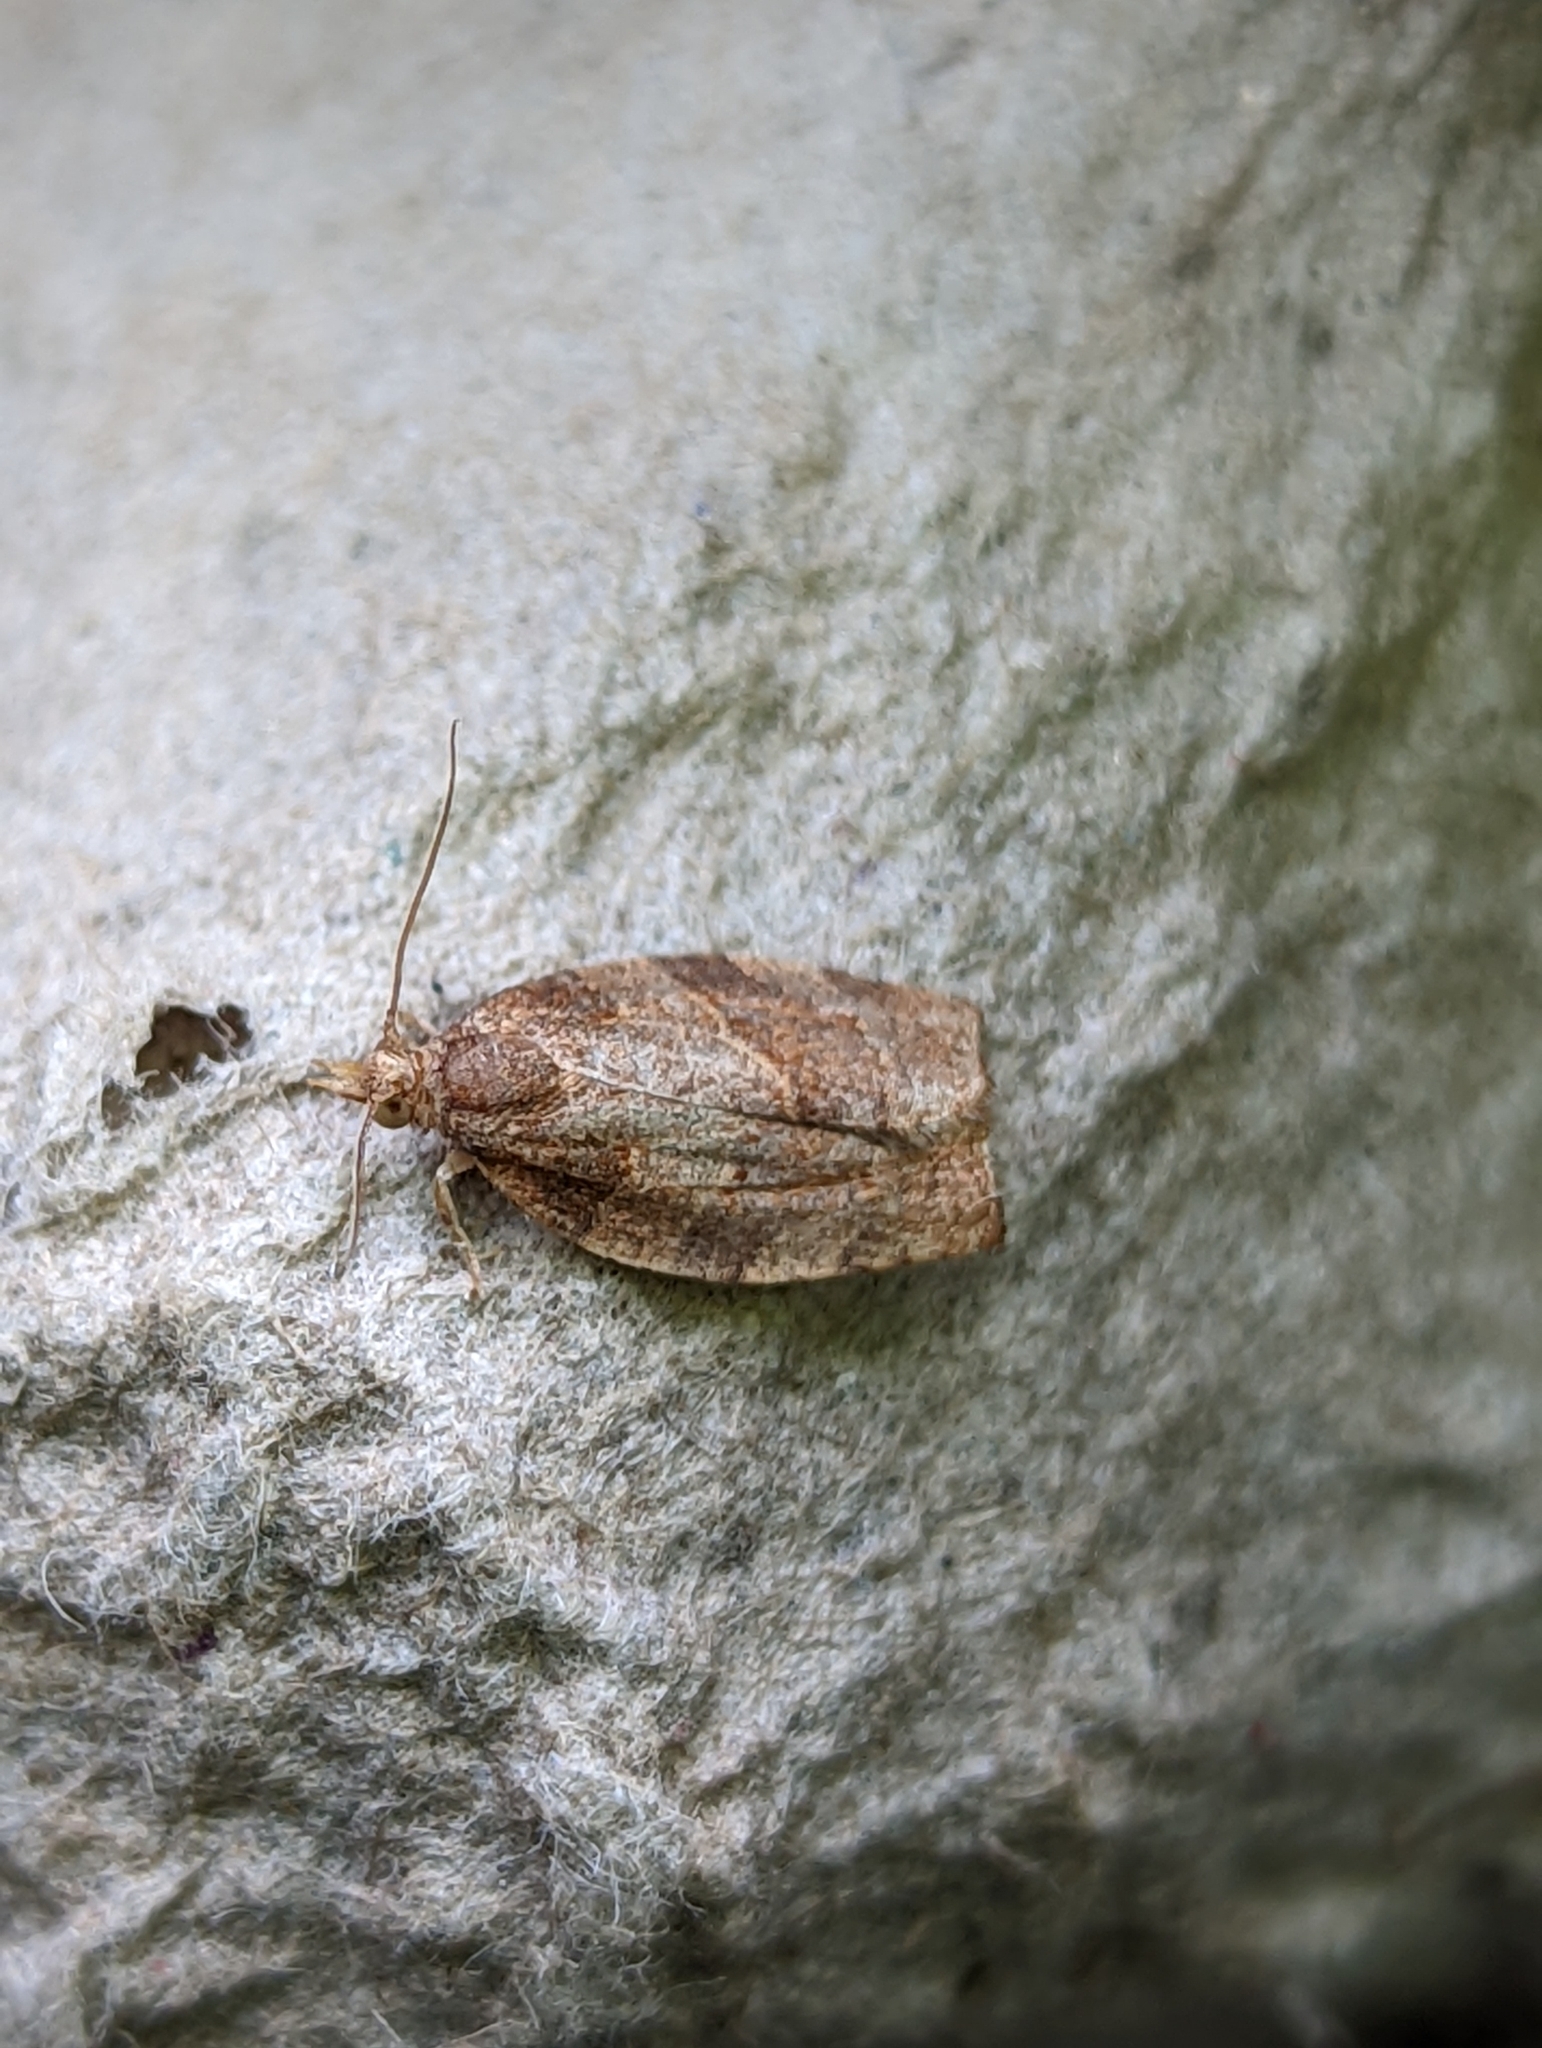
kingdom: Animalia
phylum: Arthropoda
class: Insecta
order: Lepidoptera
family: Tortricidae
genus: Pandemis
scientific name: Pandemis heparana
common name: Dark fruit-tree tortrix
